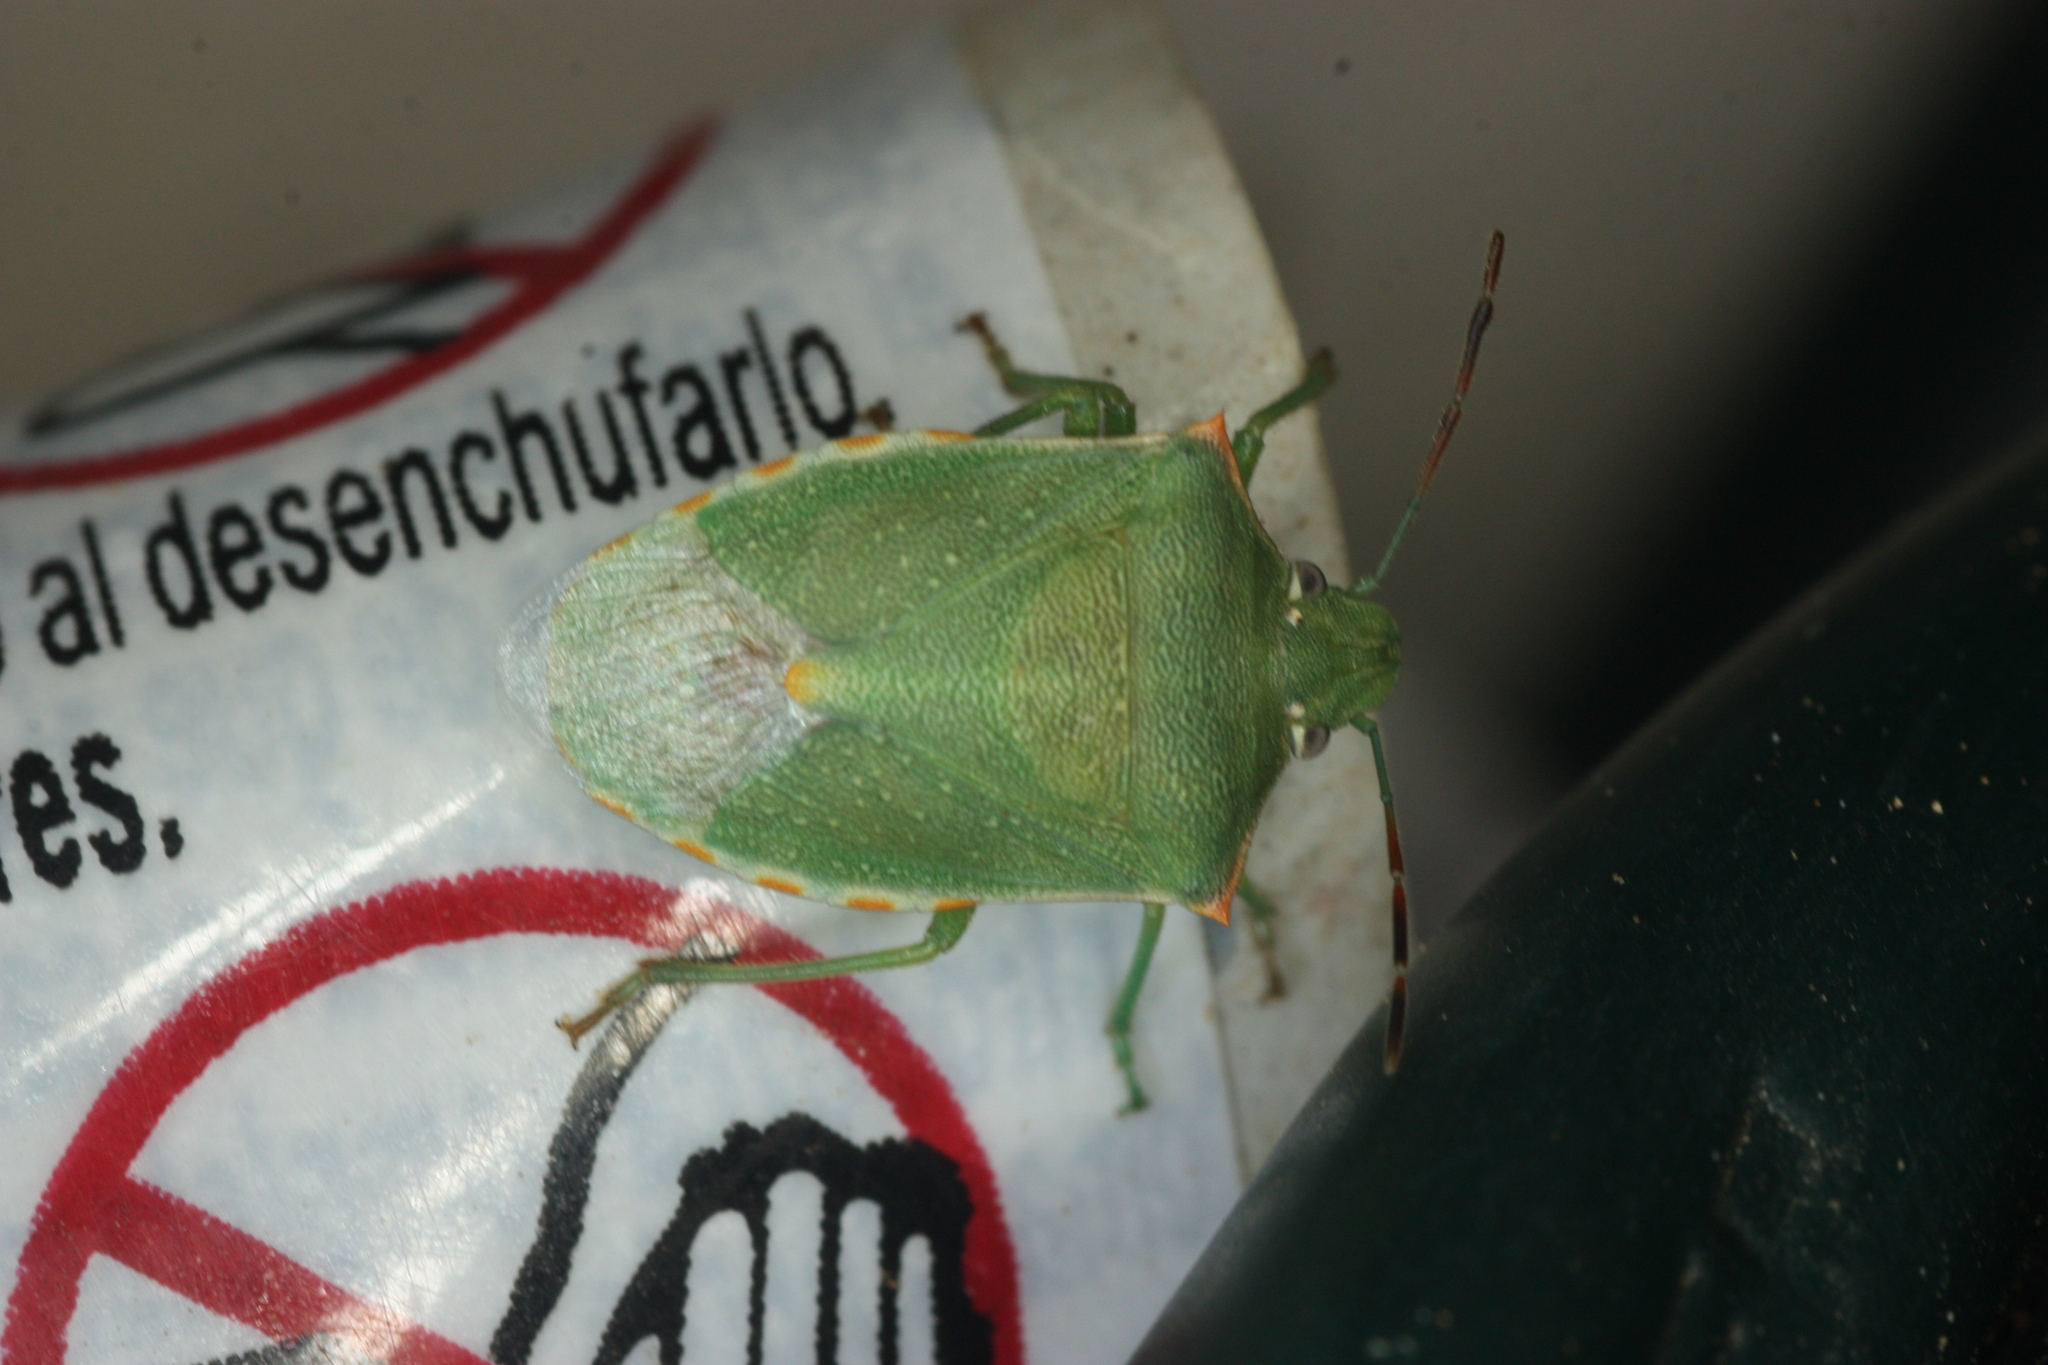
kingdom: Animalia
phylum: Arthropoda
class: Insecta
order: Hemiptera
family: Pentatomidae
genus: Thyanta
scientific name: Thyanta accerra
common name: Stink bug
